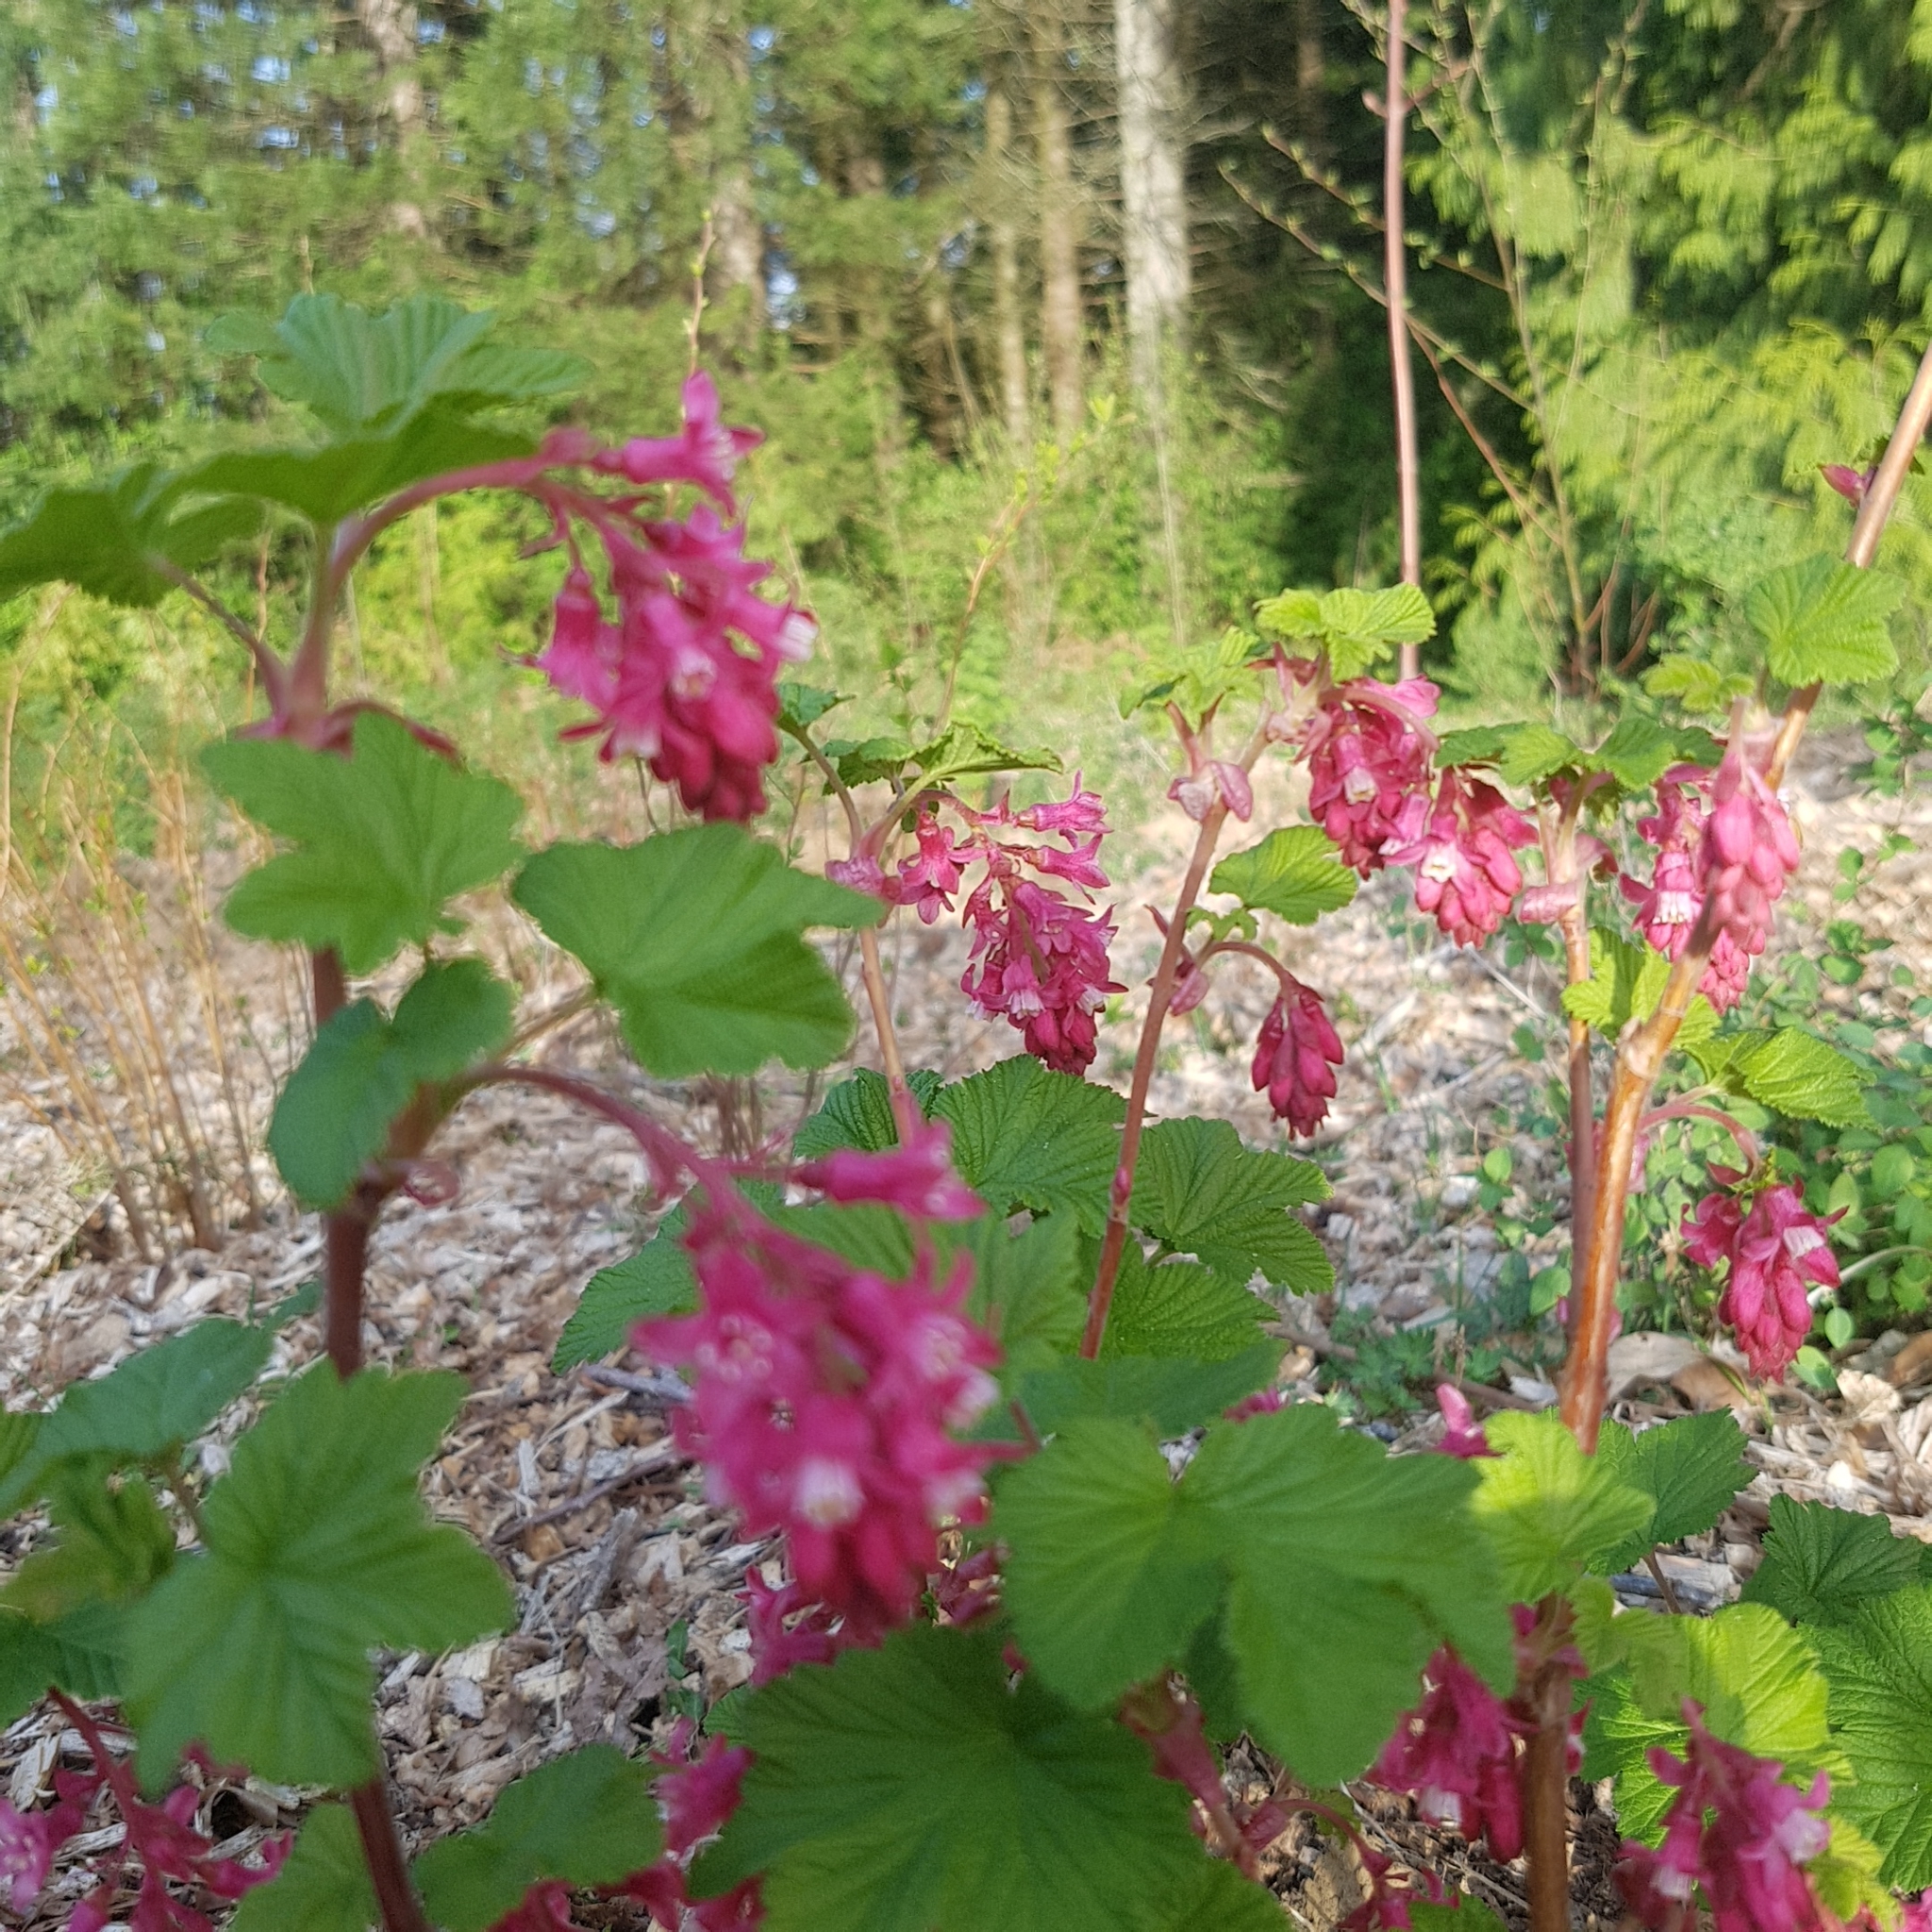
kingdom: Plantae
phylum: Tracheophyta
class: Magnoliopsida
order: Saxifragales
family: Grossulariaceae
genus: Ribes
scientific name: Ribes sanguineum
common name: Flowering currant
